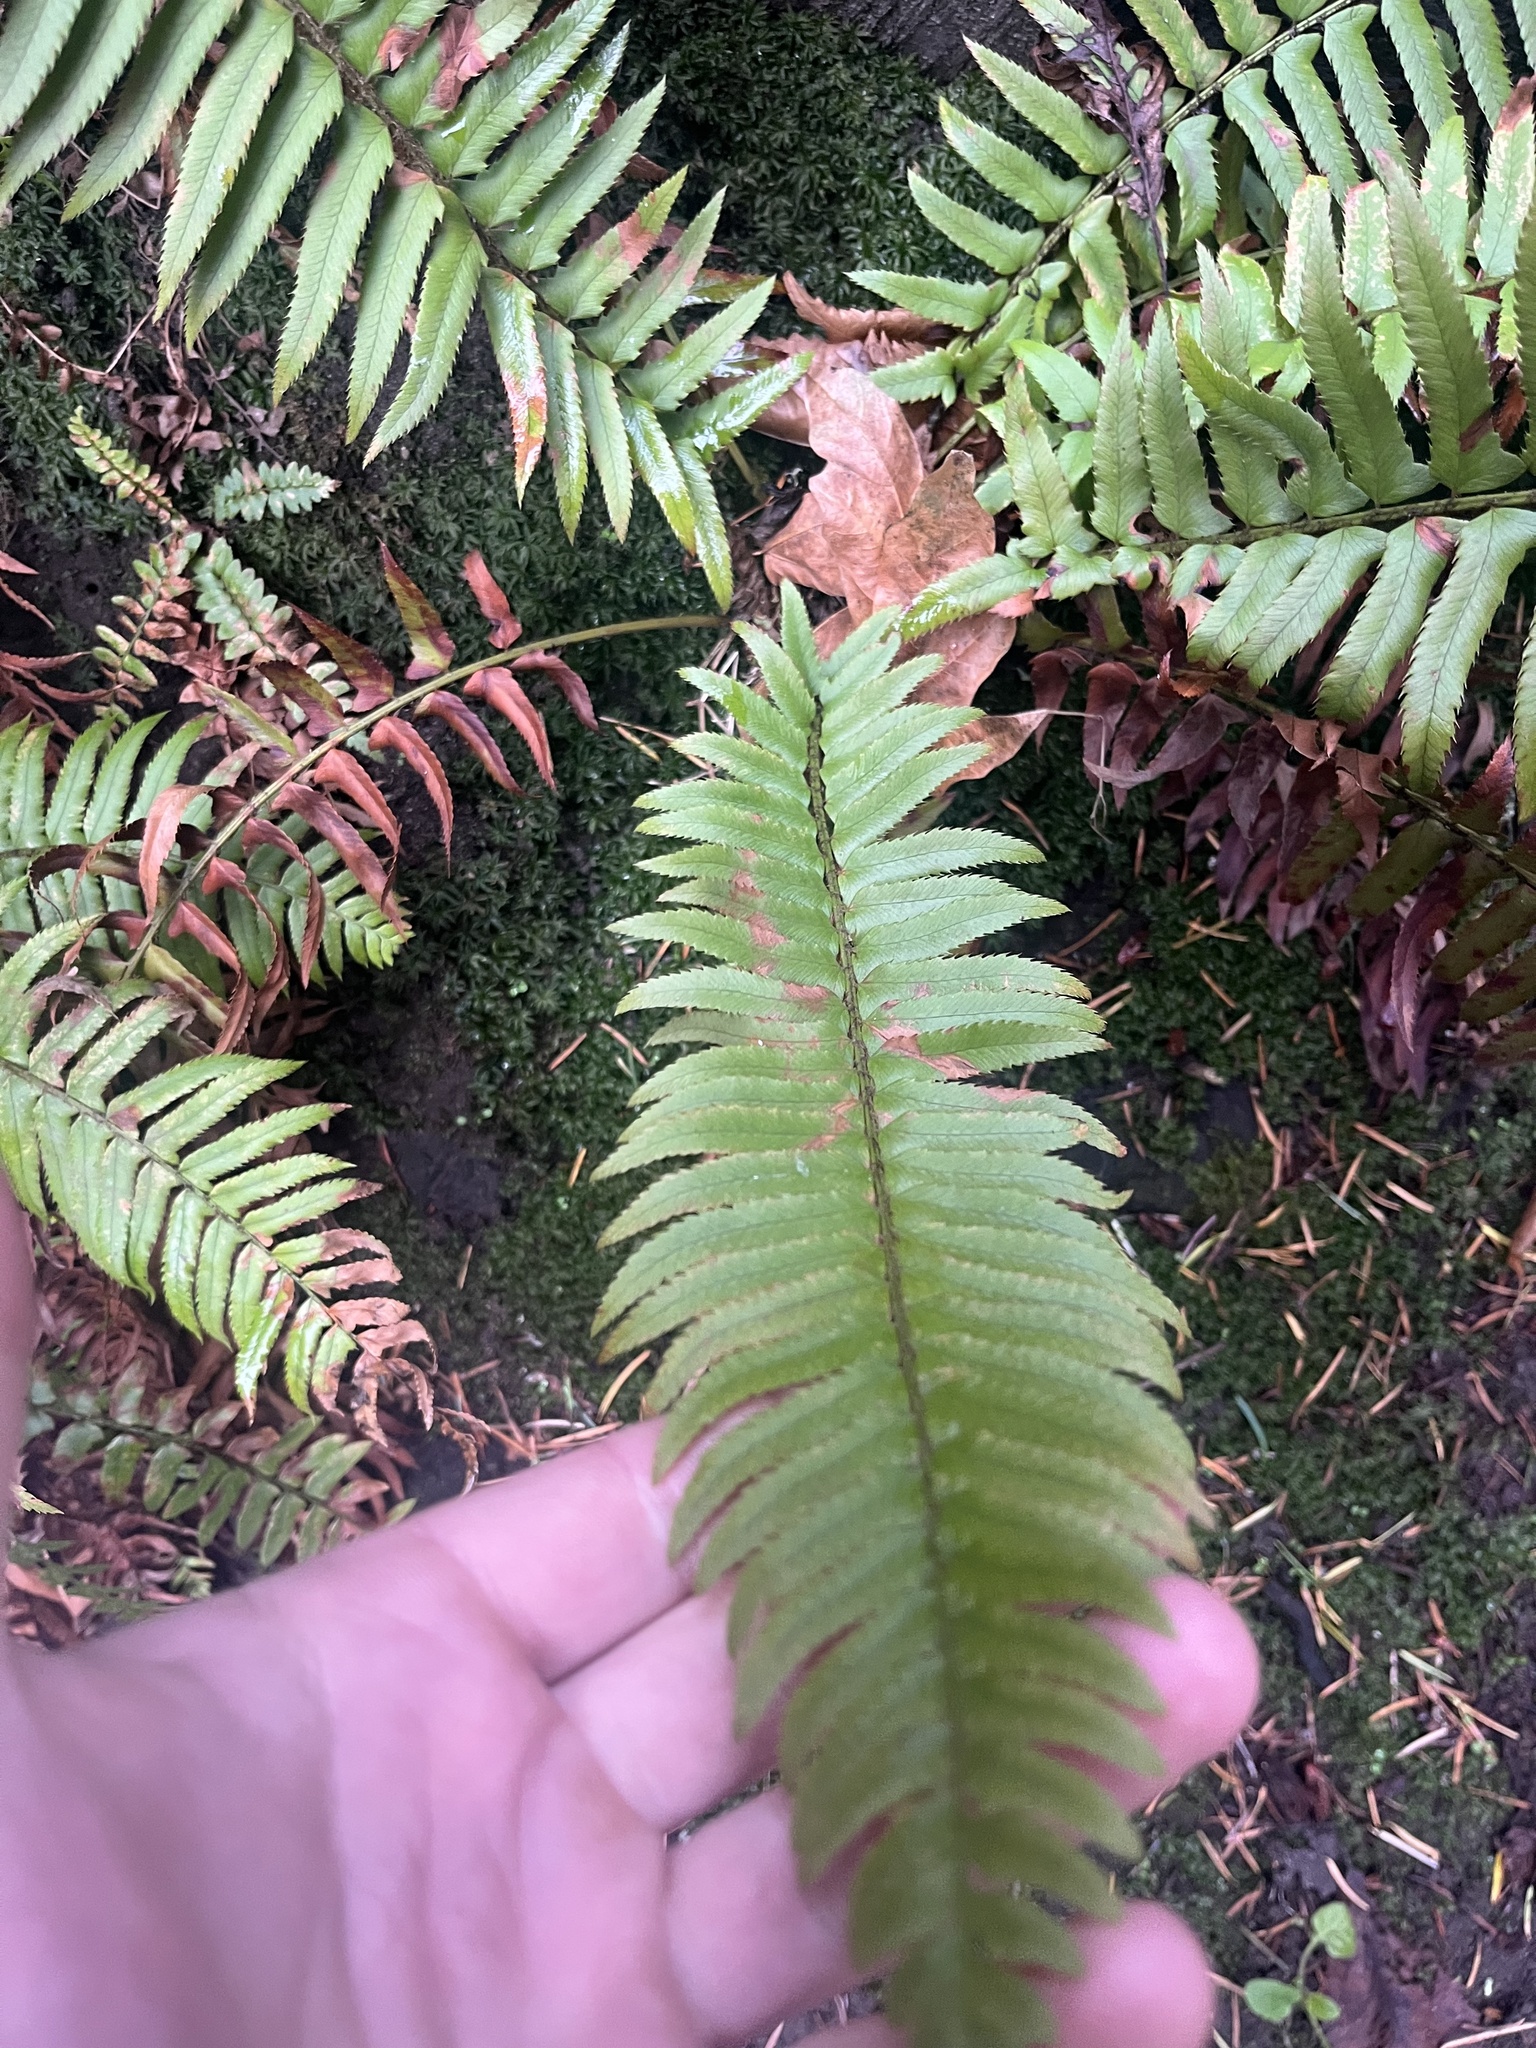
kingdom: Plantae
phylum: Tracheophyta
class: Polypodiopsida
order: Polypodiales
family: Dryopteridaceae
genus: Polystichum
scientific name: Polystichum munitum
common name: Western sword-fern
